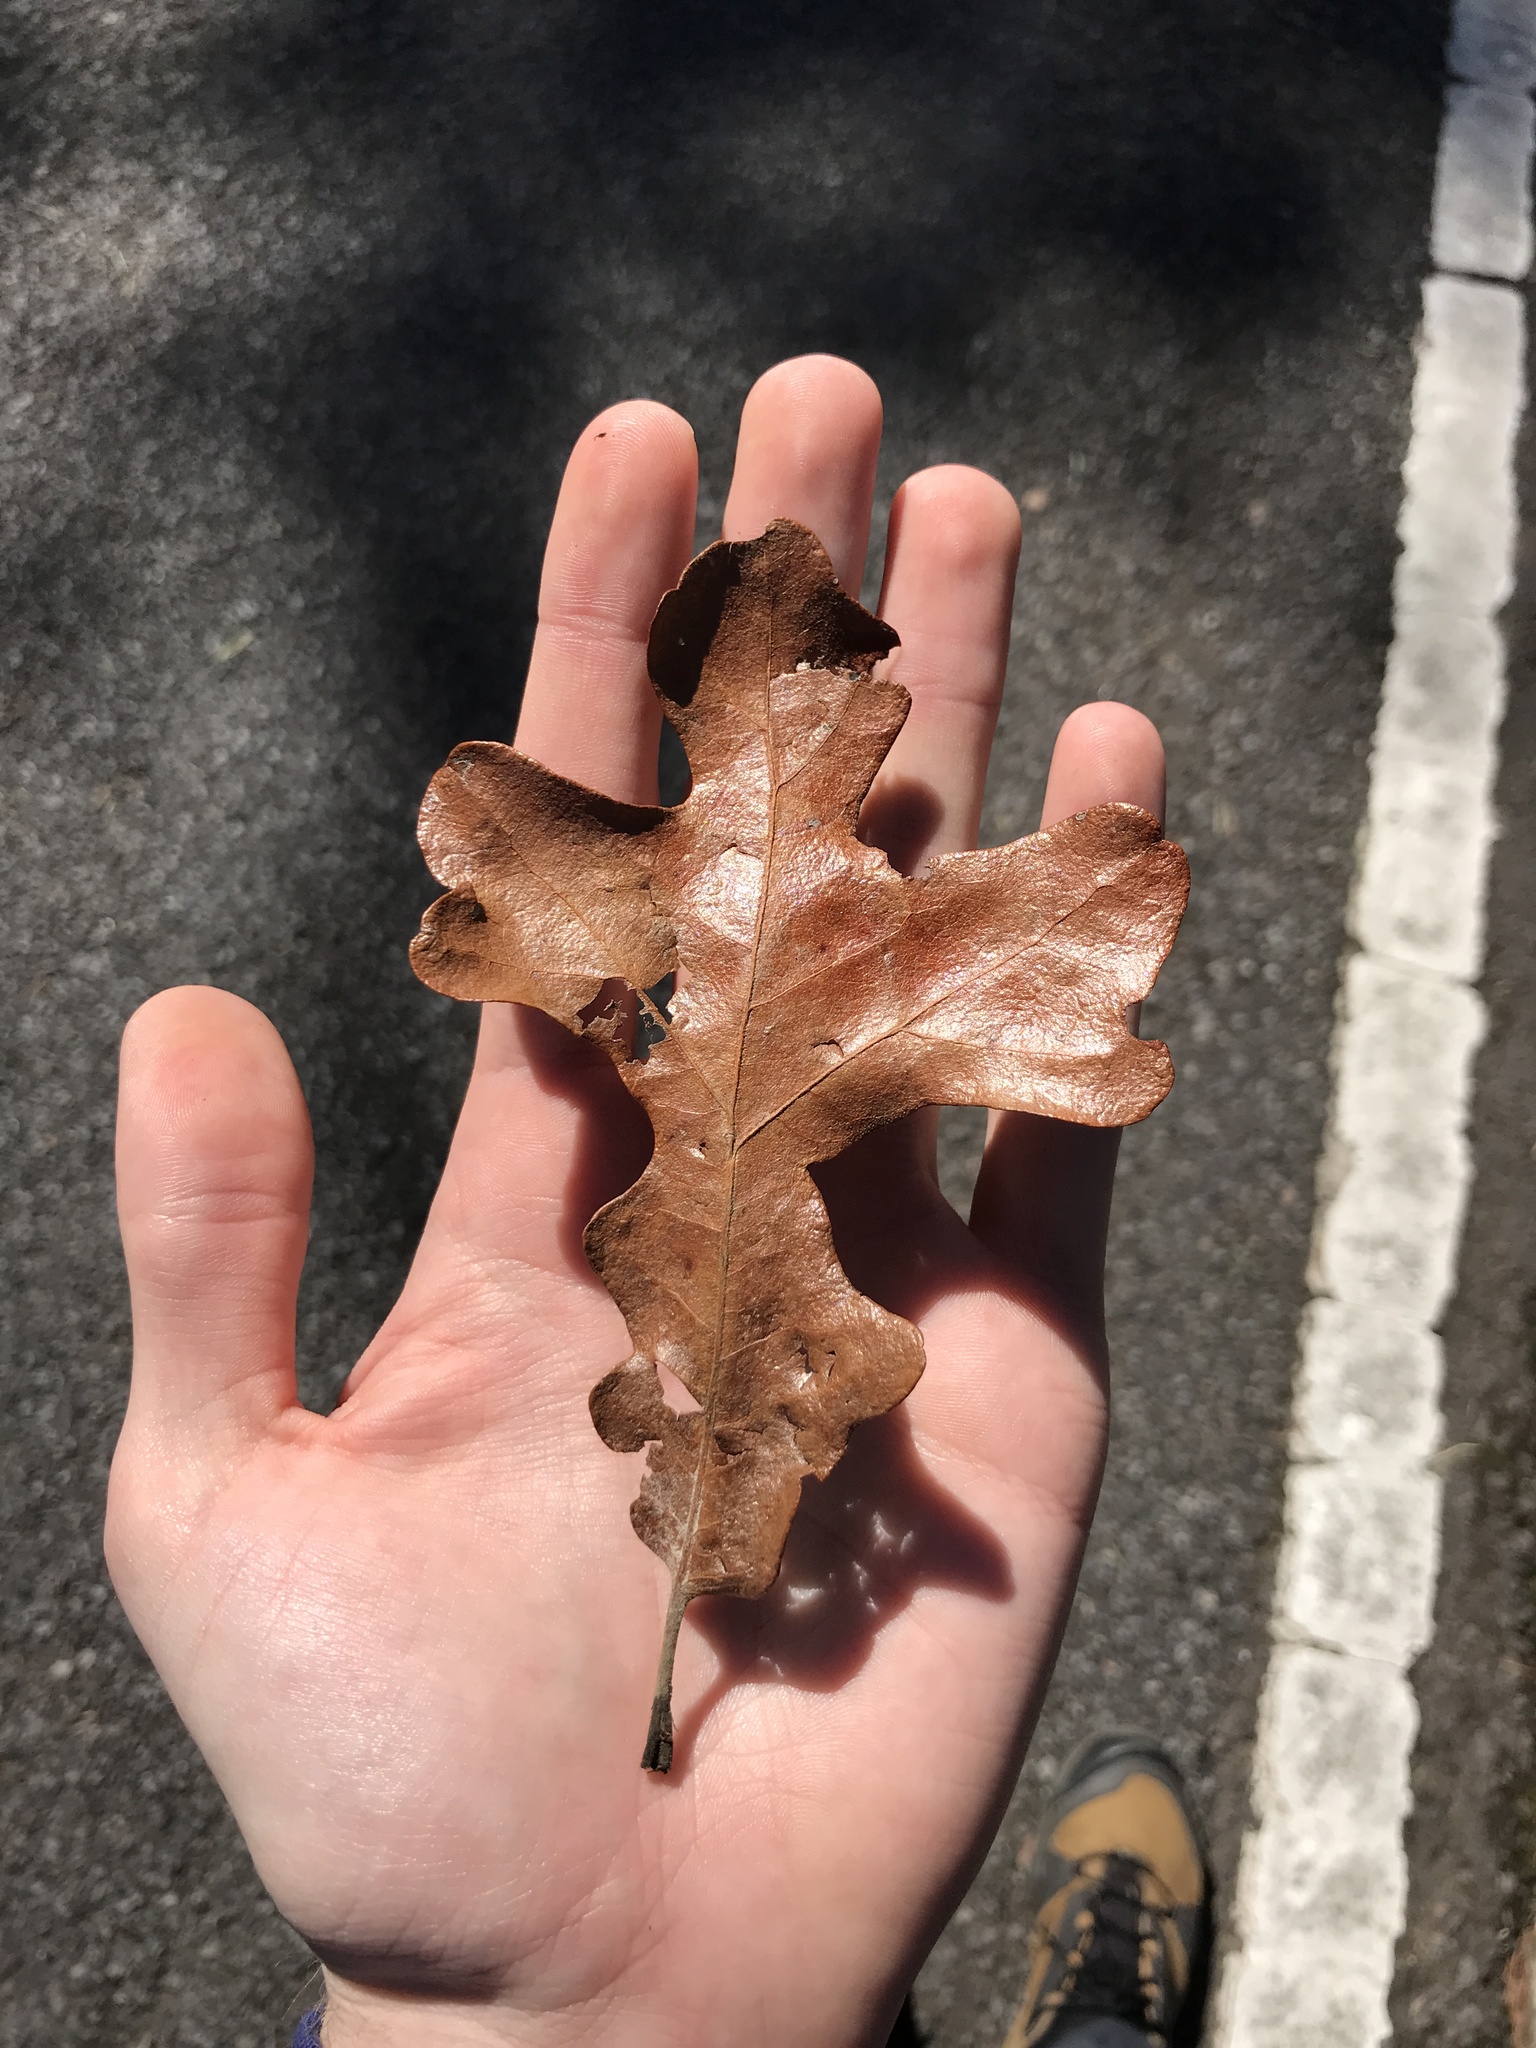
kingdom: Plantae
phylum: Tracheophyta
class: Magnoliopsida
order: Fagales
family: Fagaceae
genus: Quercus
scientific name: Quercus stellata
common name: Post oak
